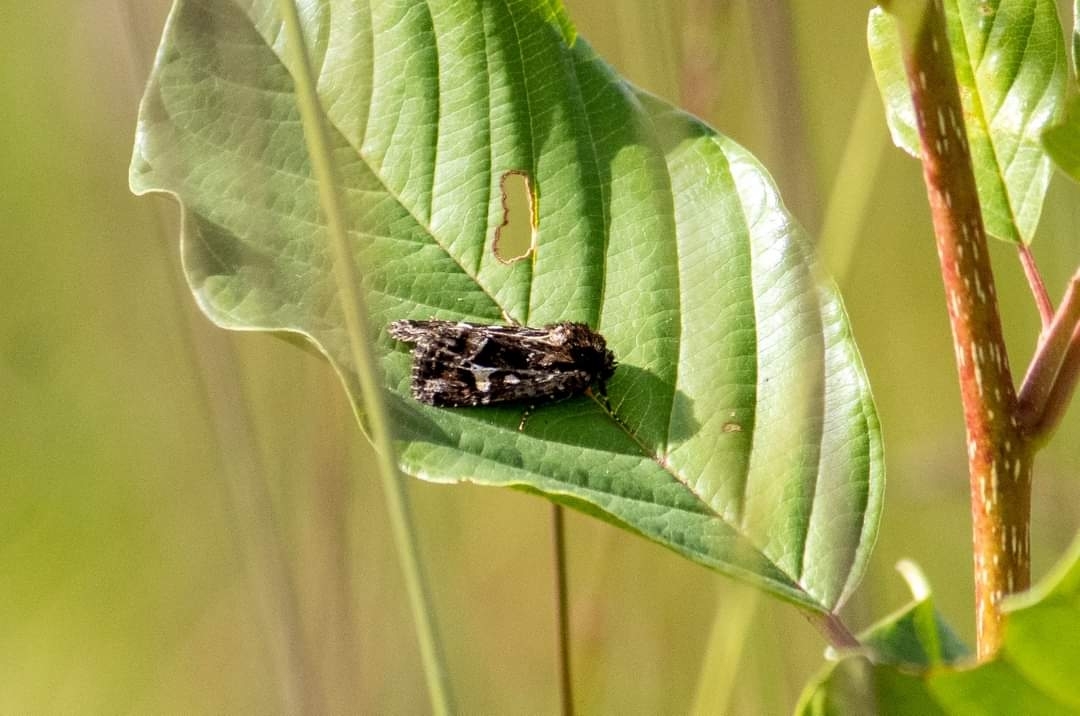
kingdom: Animalia
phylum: Arthropoda
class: Insecta
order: Lepidoptera
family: Noctuidae
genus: Celaena
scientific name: Celaena haworthii
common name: Haworth's minor
